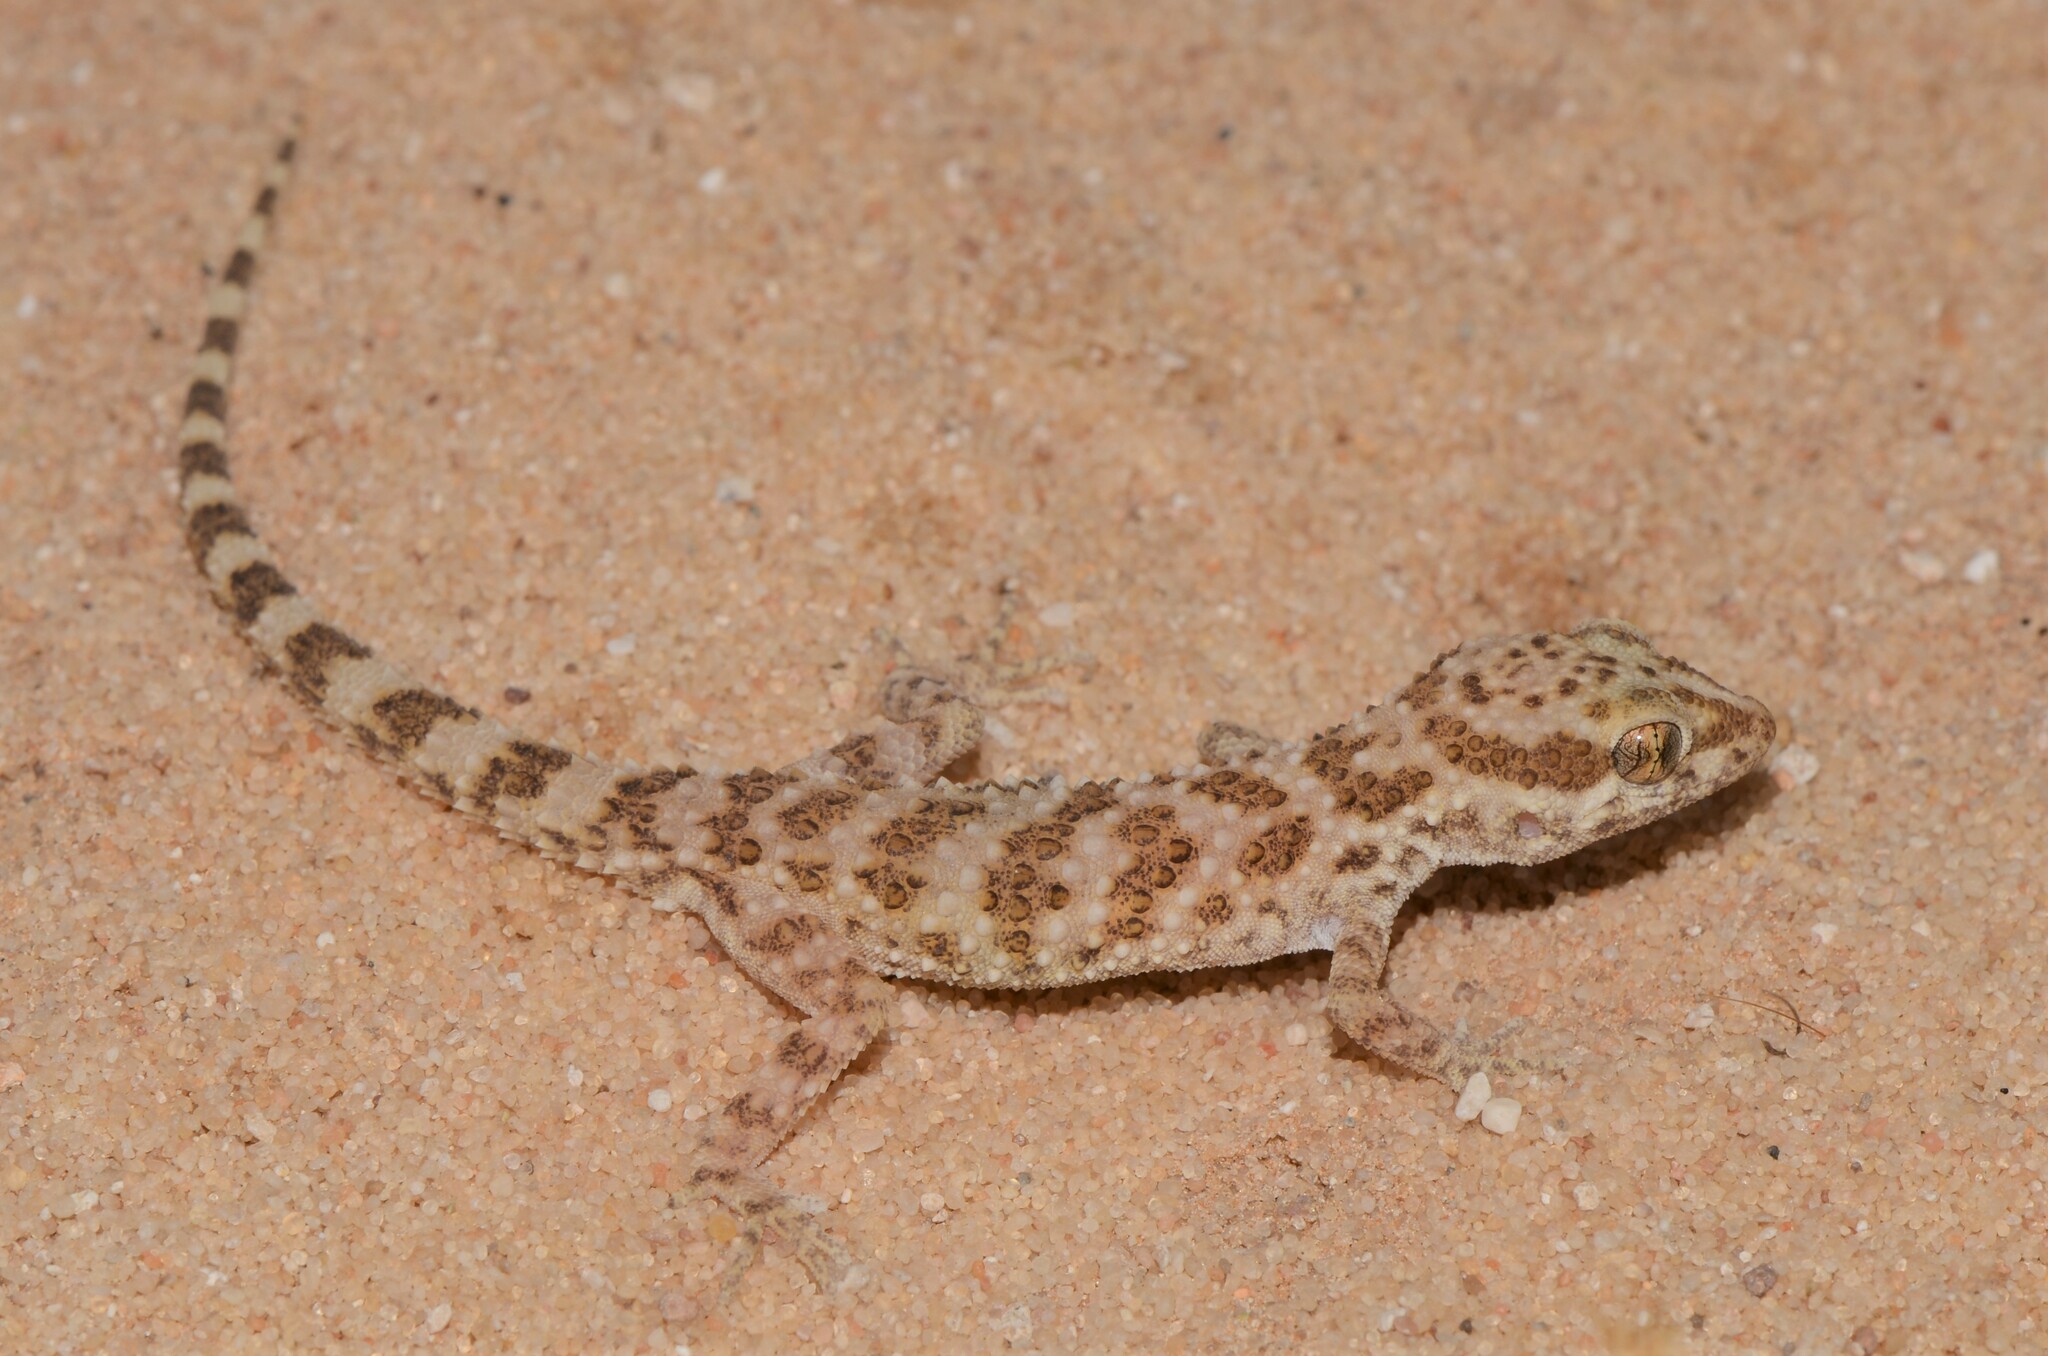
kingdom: Animalia
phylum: Chordata
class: Squamata
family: Gekkonidae
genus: Bunopus
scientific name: Bunopus tuberculatus
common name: Southern tuberculated gecko
